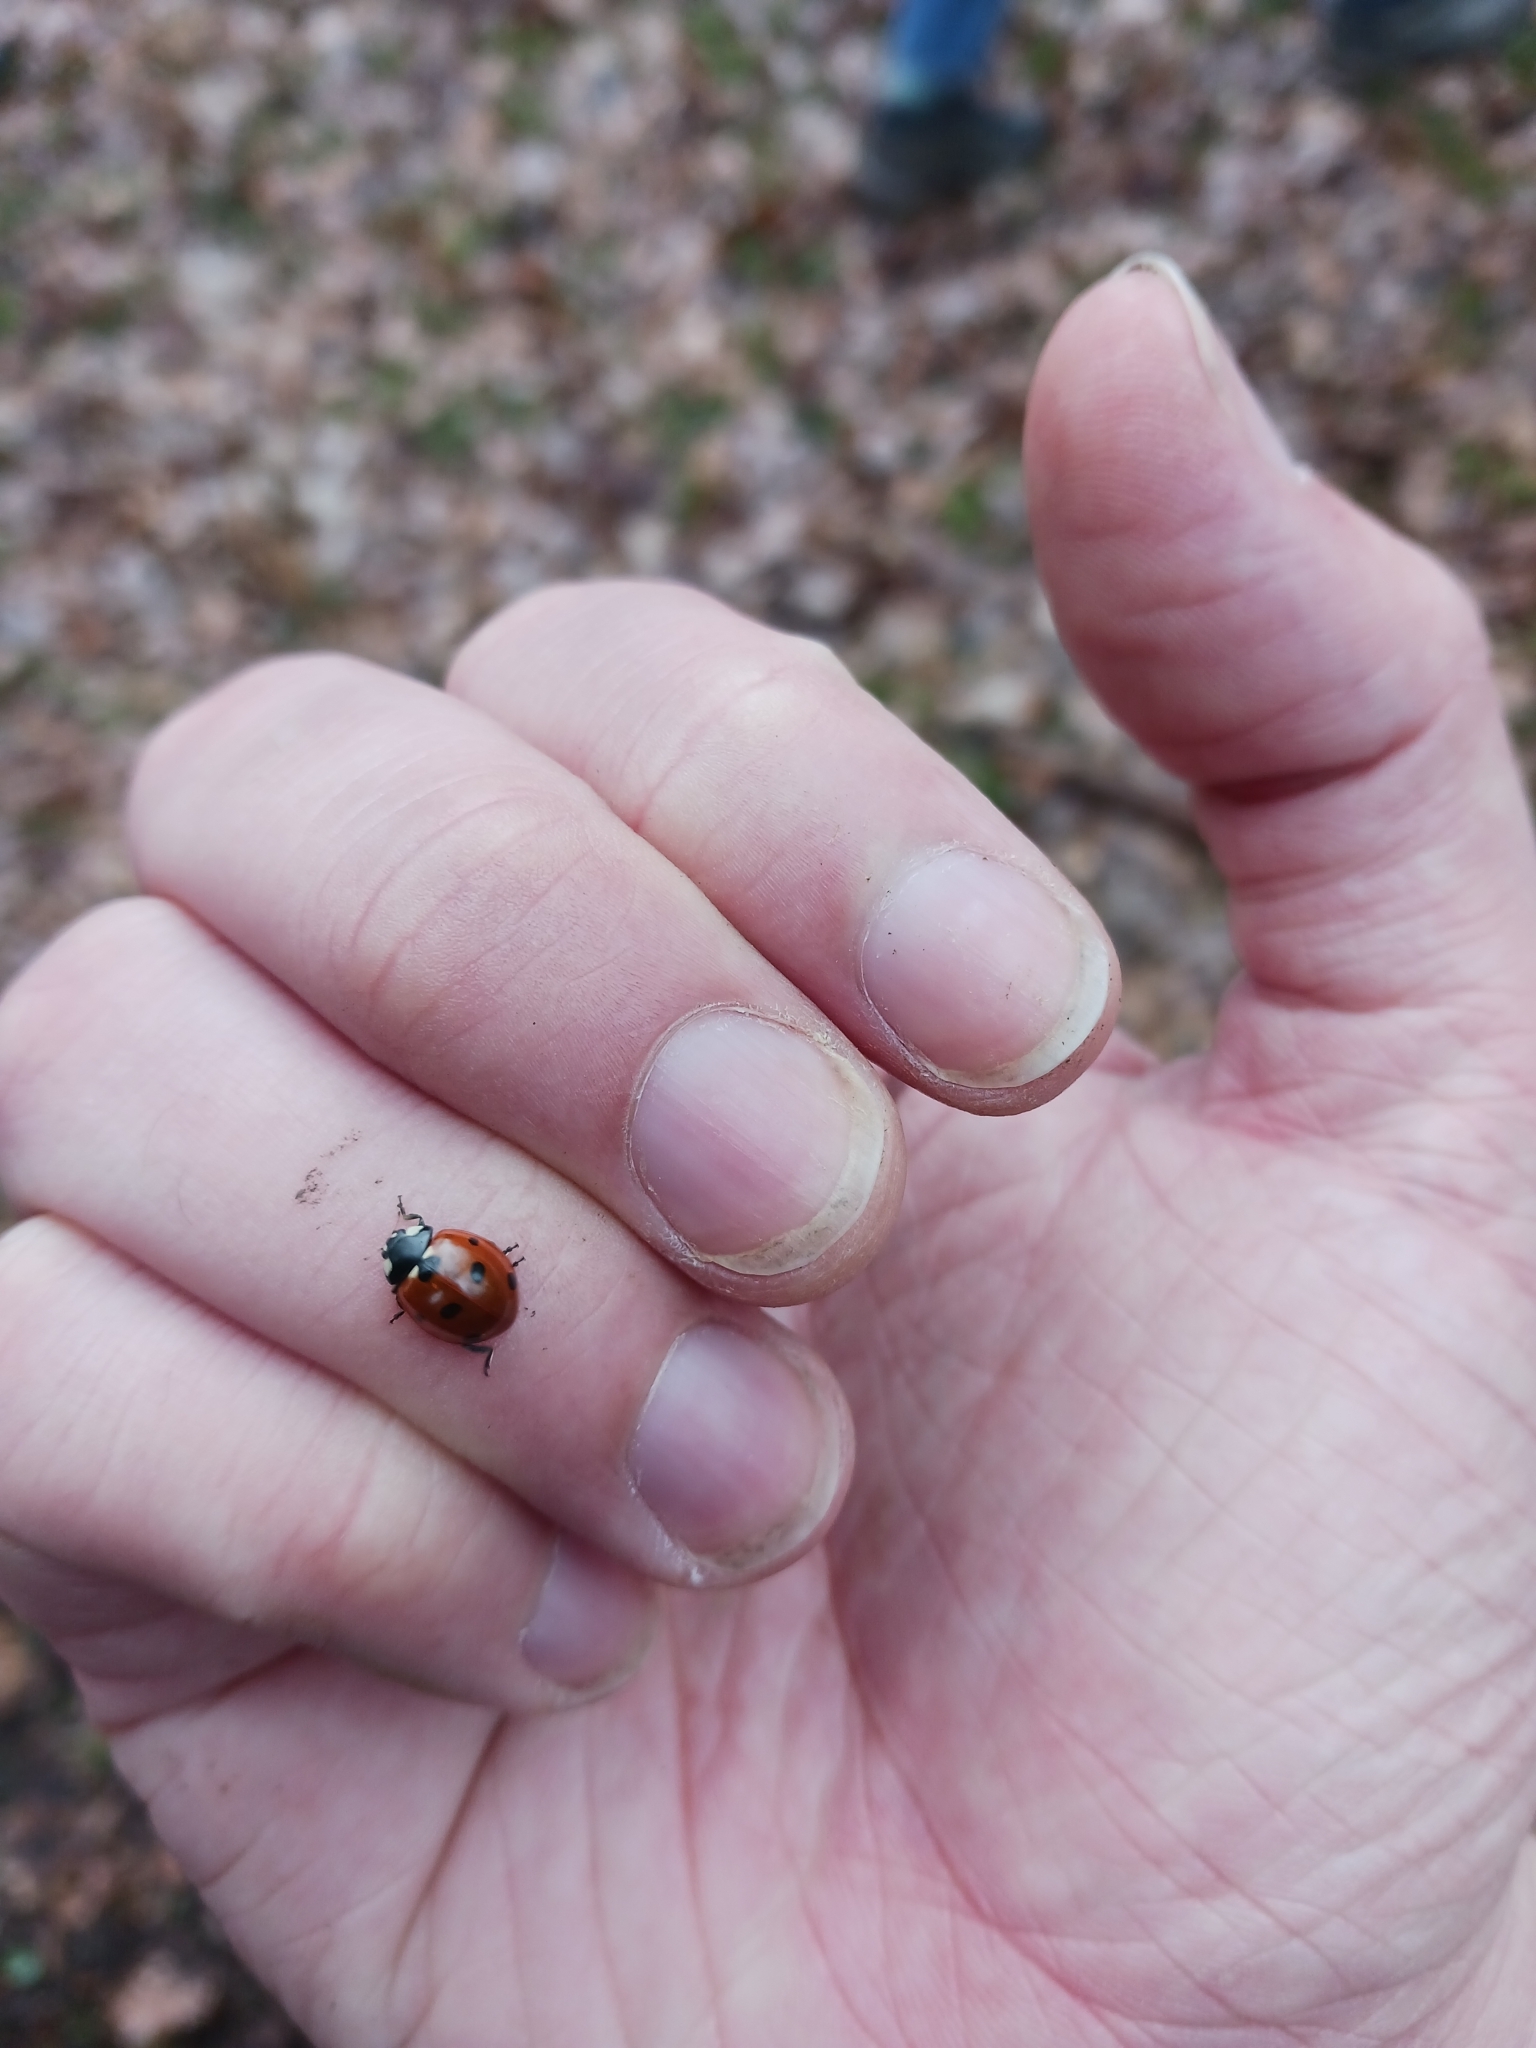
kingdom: Animalia
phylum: Arthropoda
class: Insecta
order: Coleoptera
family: Coccinellidae
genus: Coccinella
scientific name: Coccinella septempunctata
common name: Sevenspotted lady beetle
